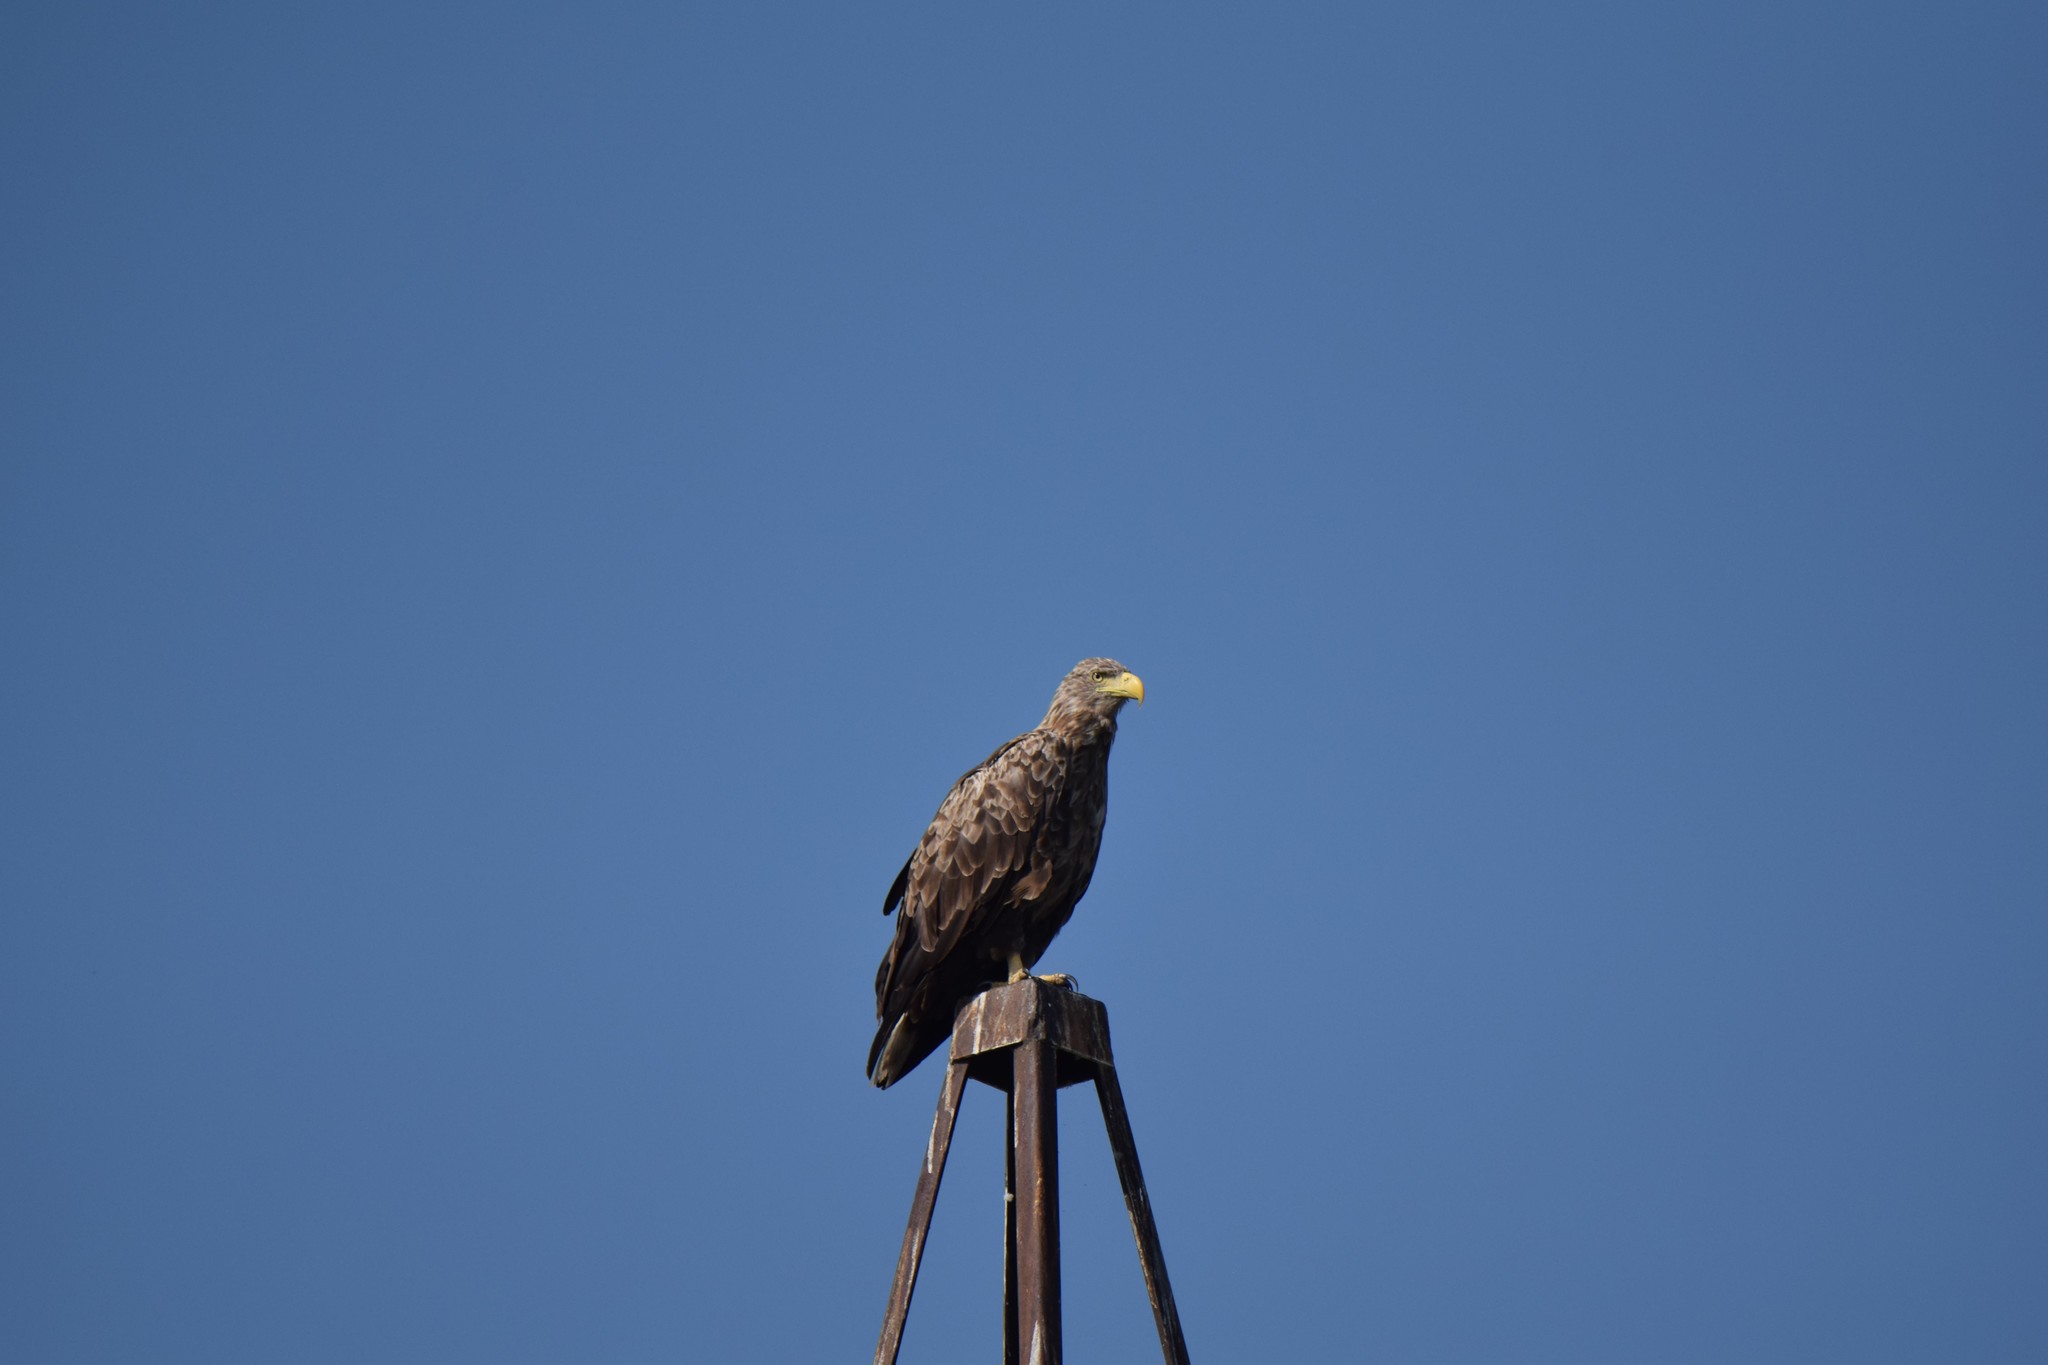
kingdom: Animalia
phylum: Chordata
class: Aves
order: Accipitriformes
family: Accipitridae
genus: Haliaeetus
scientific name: Haliaeetus albicilla
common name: White-tailed eagle
